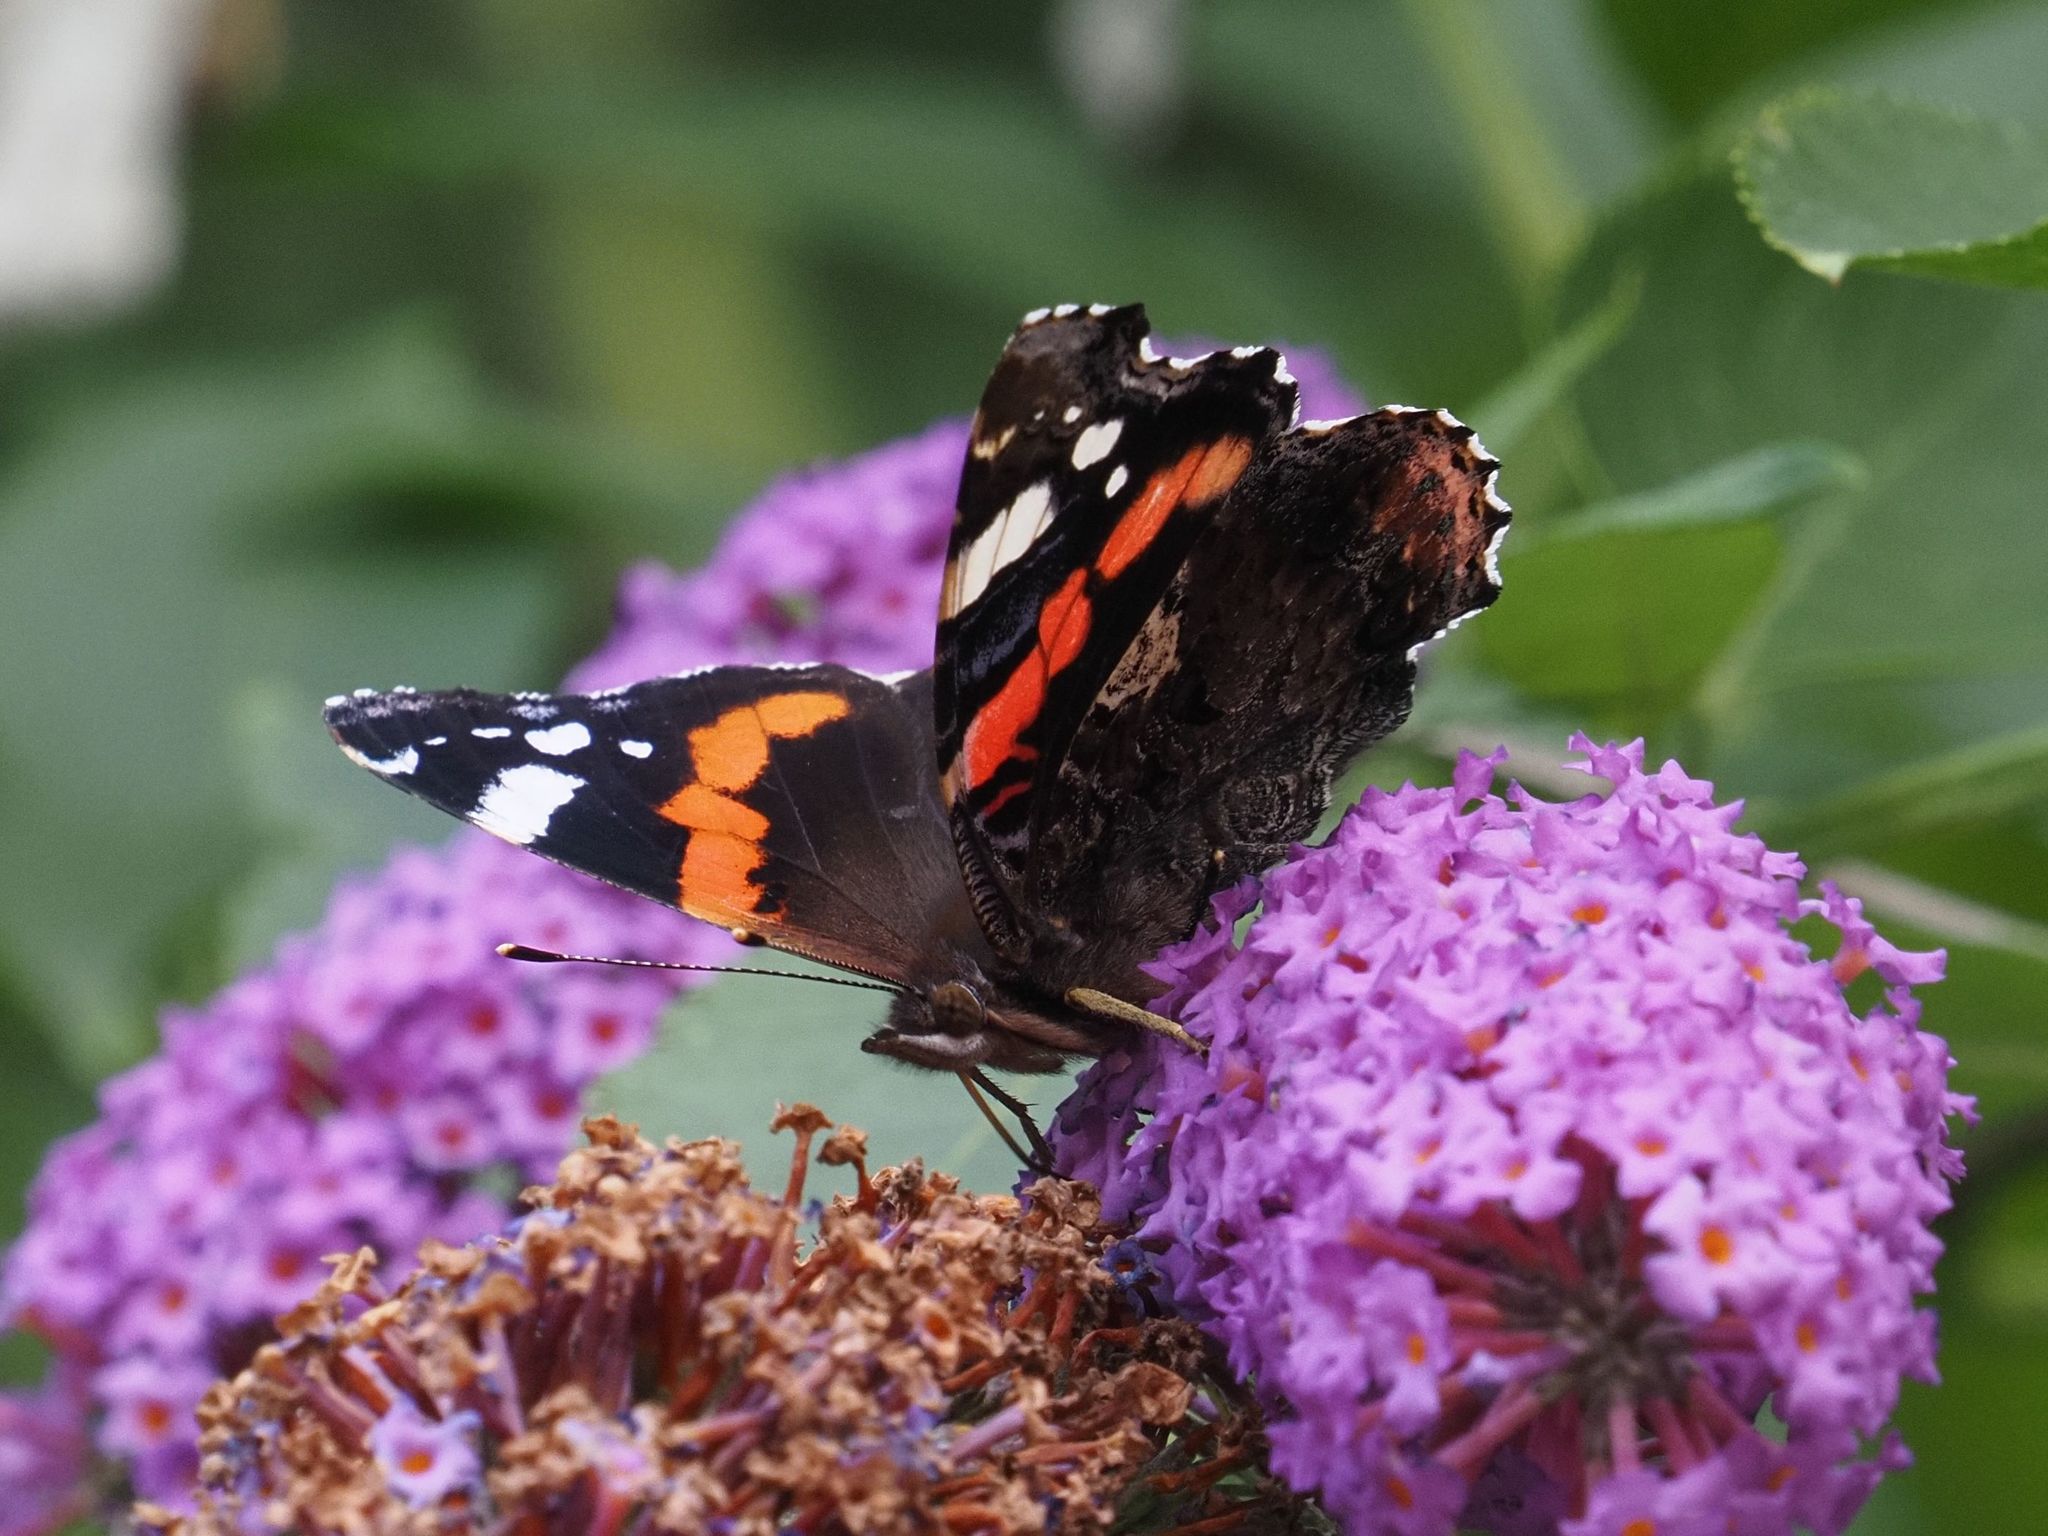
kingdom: Animalia
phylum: Arthropoda
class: Insecta
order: Lepidoptera
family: Nymphalidae
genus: Vanessa
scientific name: Vanessa atalanta
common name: Red admiral
